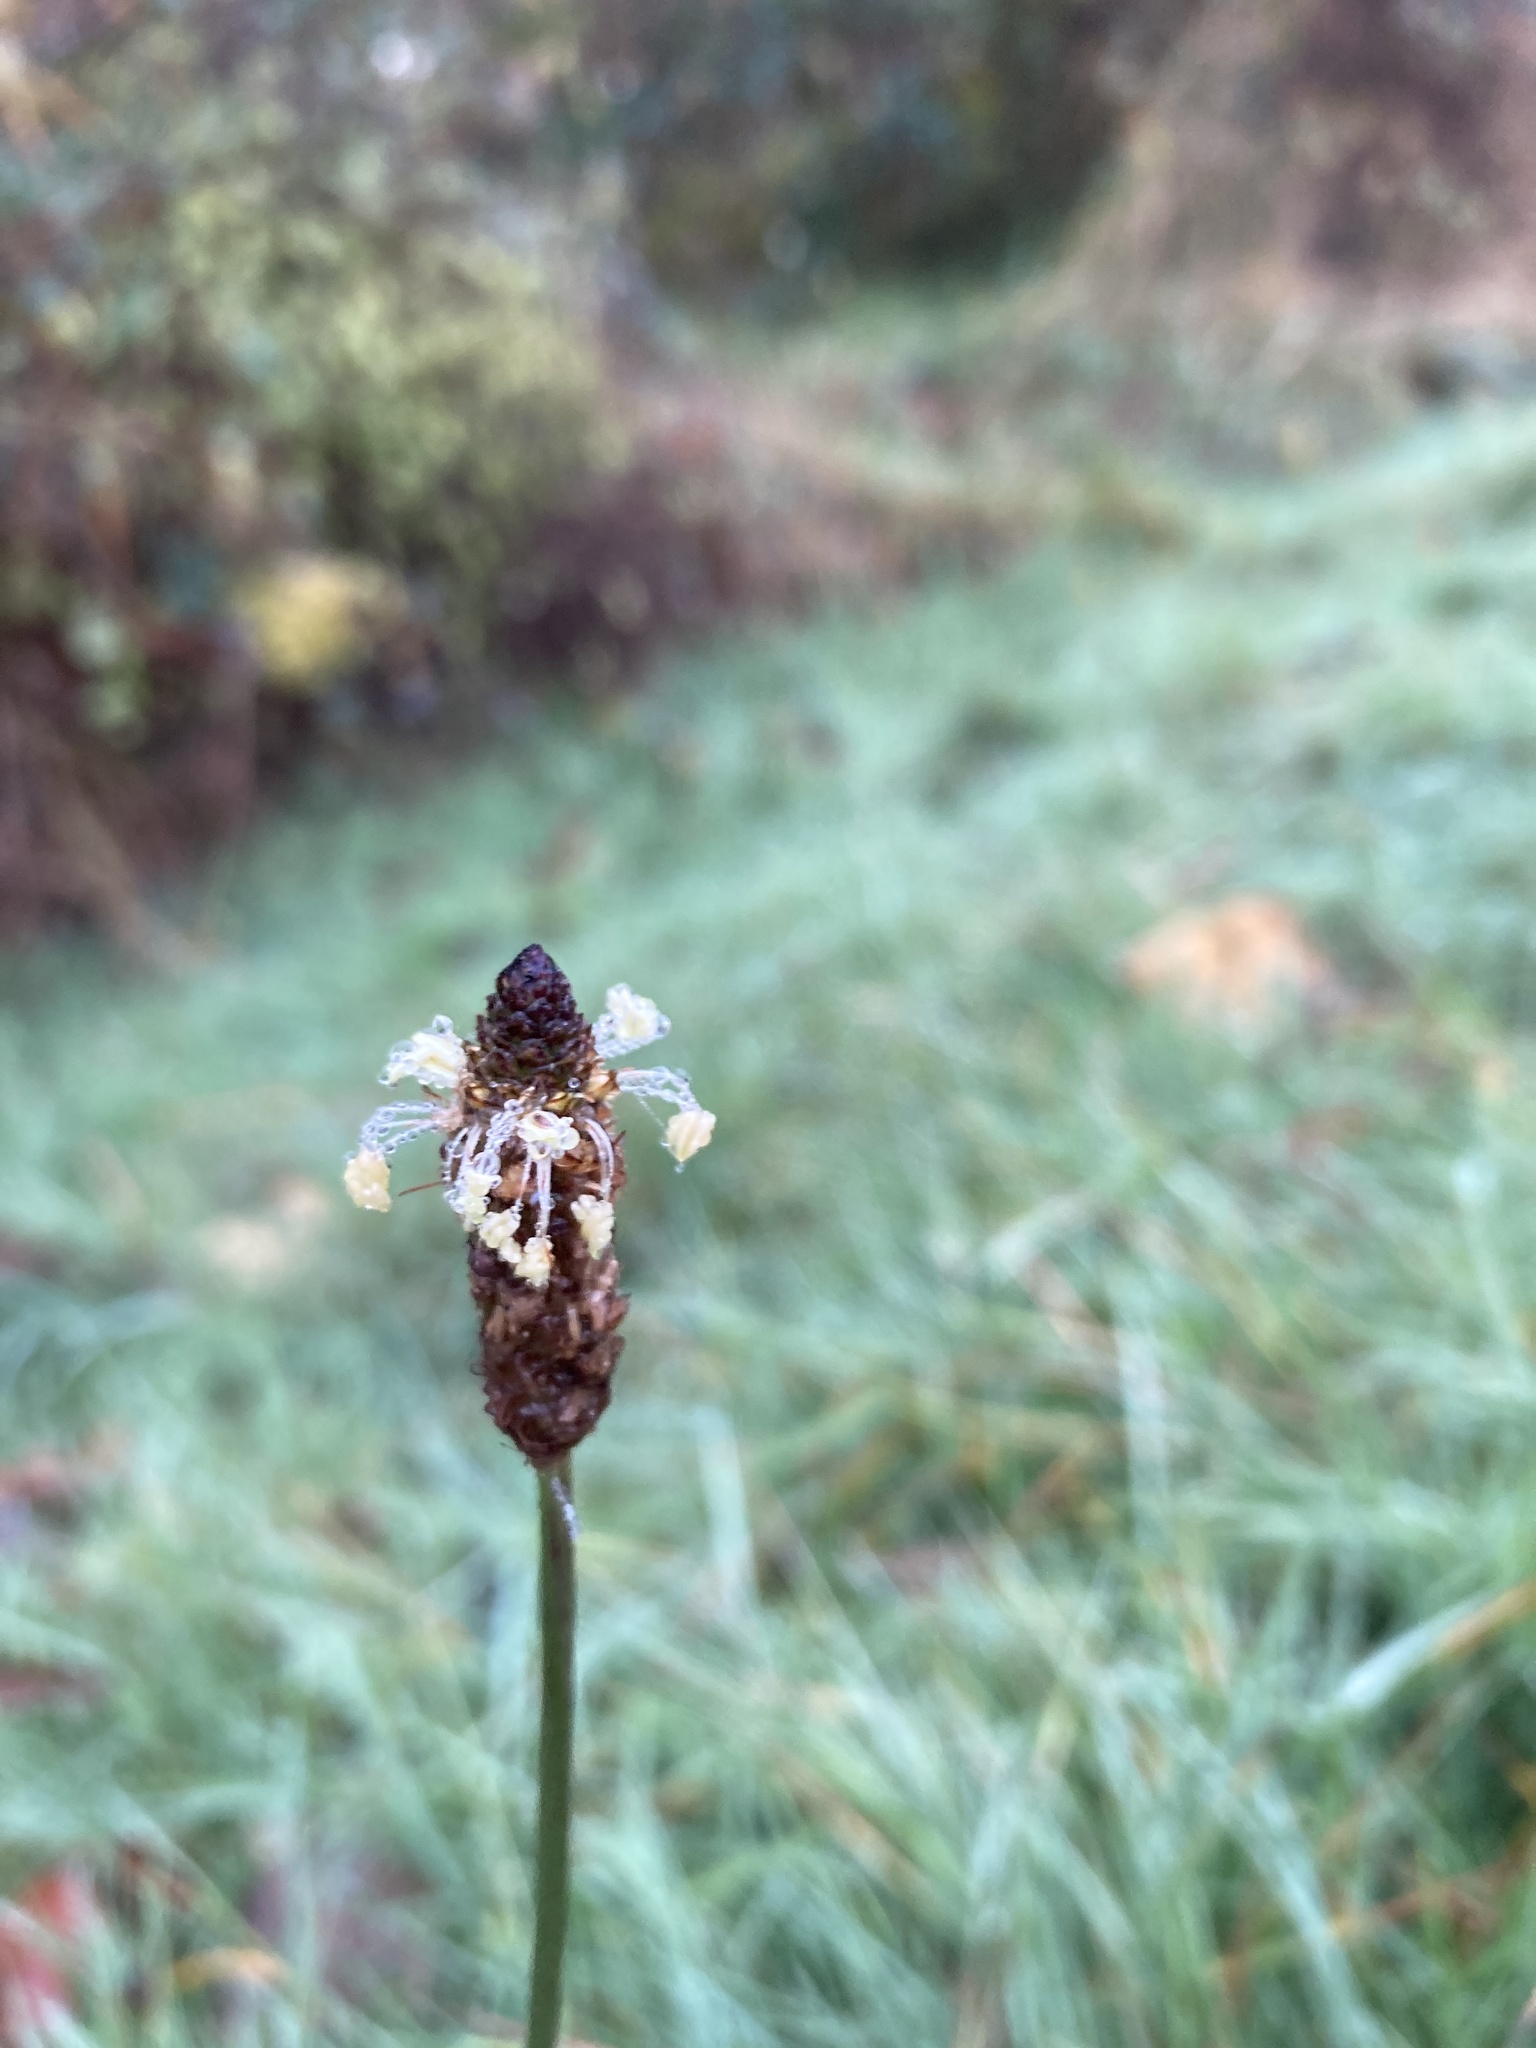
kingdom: Plantae
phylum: Tracheophyta
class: Magnoliopsida
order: Lamiales
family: Plantaginaceae
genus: Plantago
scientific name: Plantago lanceolata
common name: Ribwort plantain
